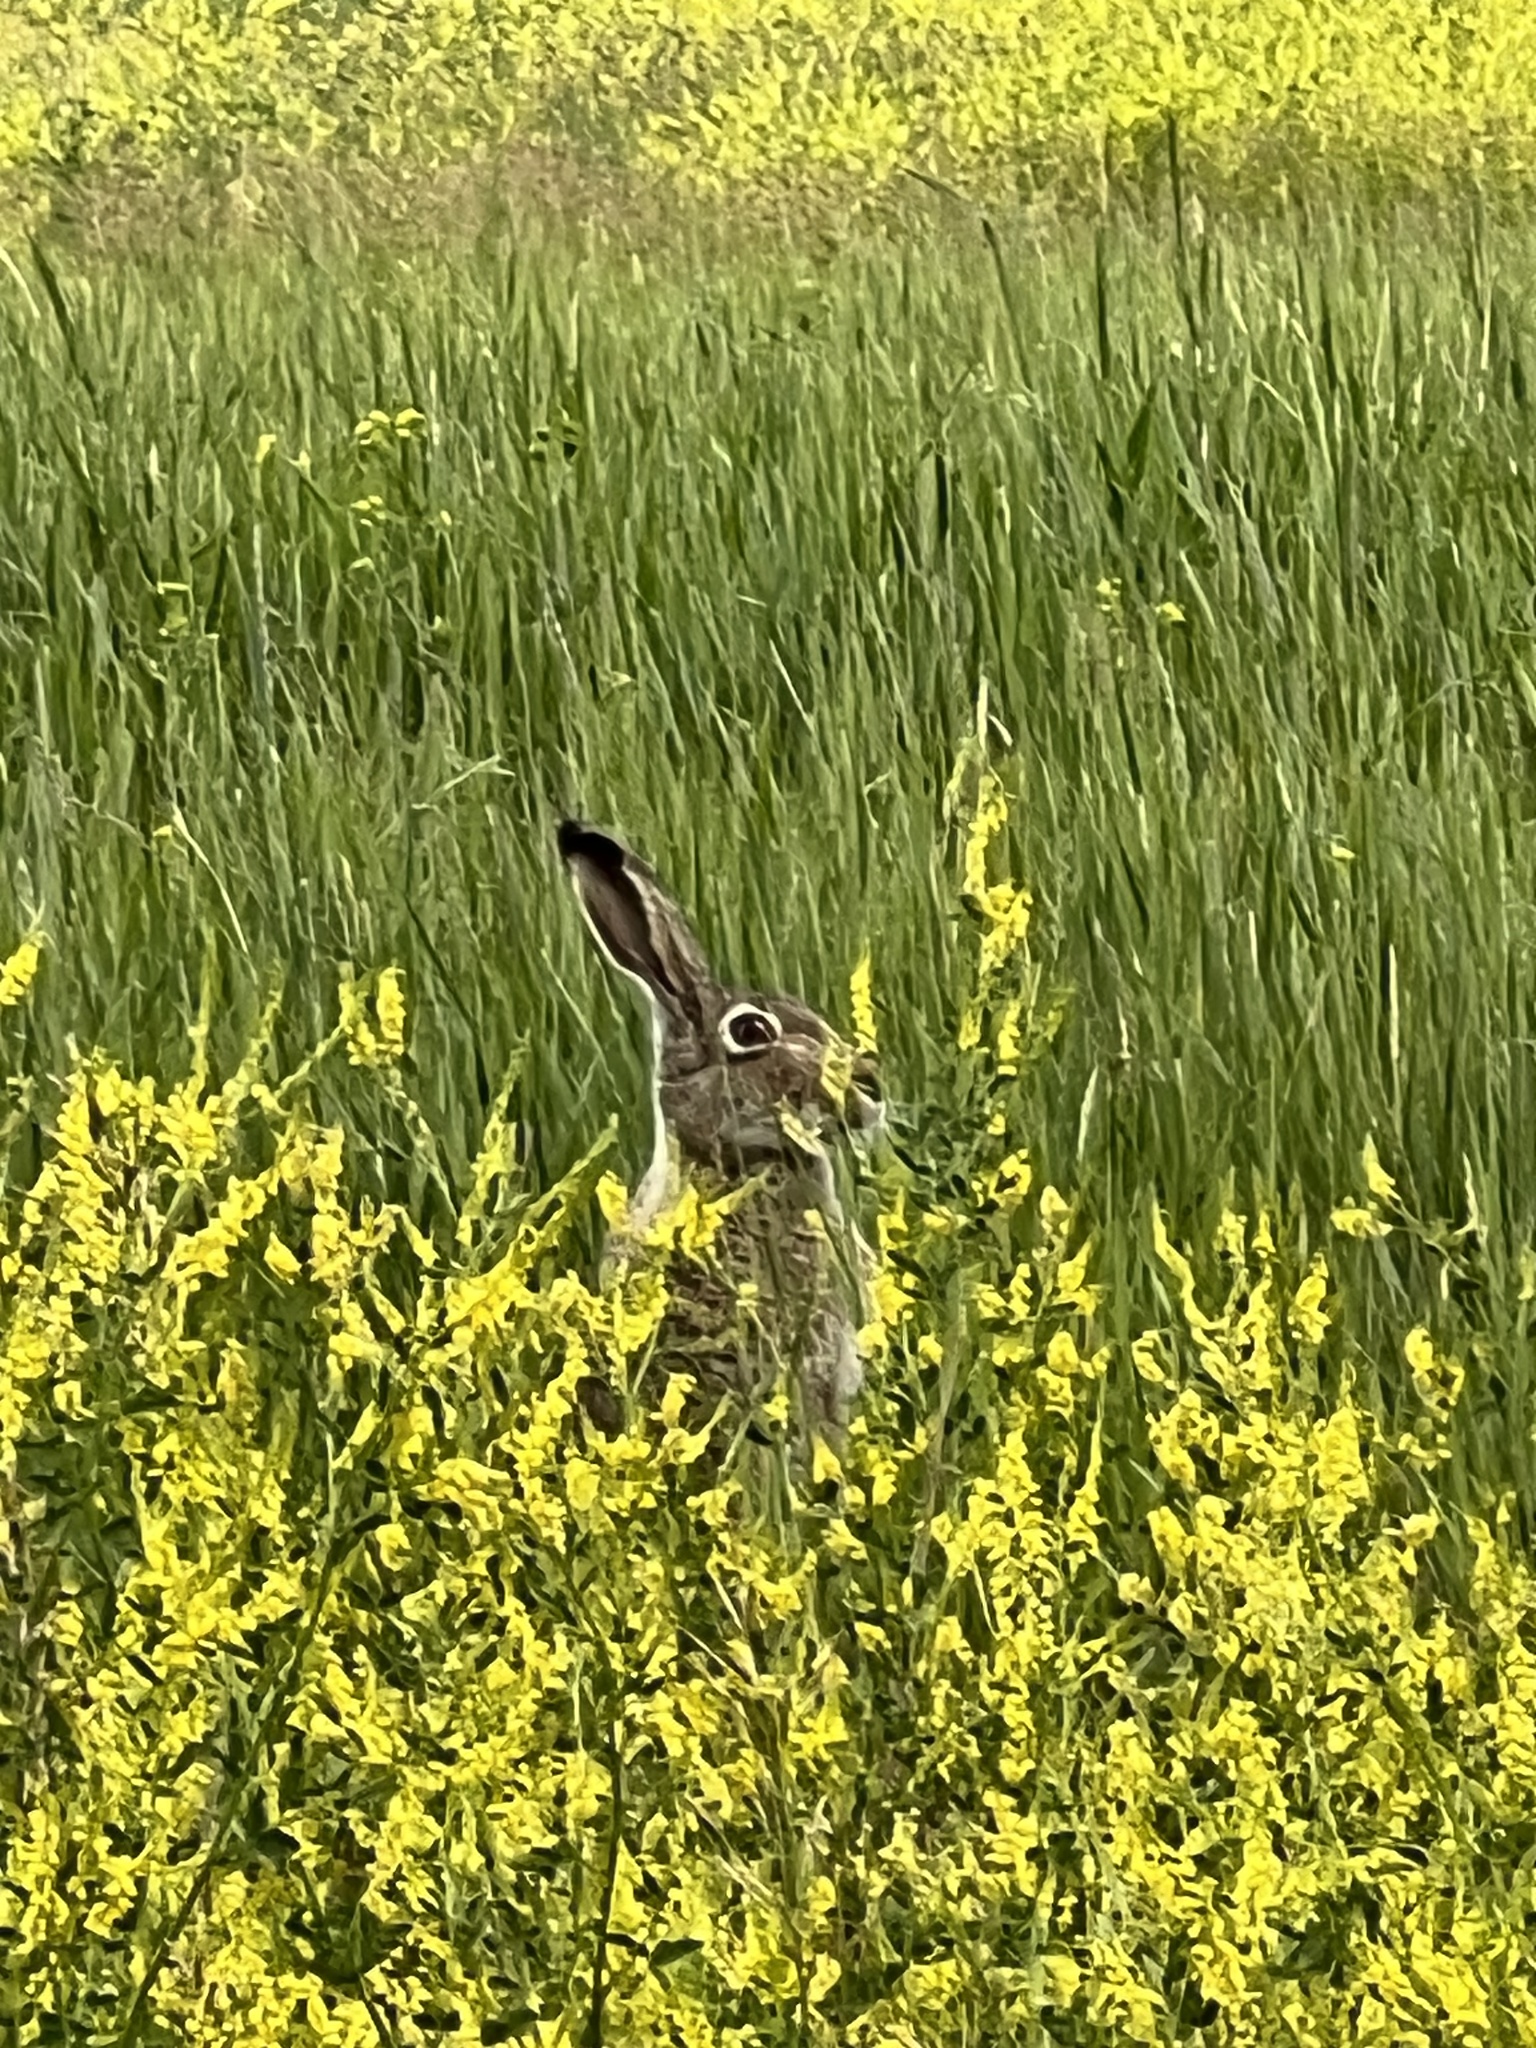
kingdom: Animalia
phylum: Chordata
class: Mammalia
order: Lagomorpha
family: Leporidae
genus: Lepus
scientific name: Lepus townsendii
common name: White-tailed jackrabbit
